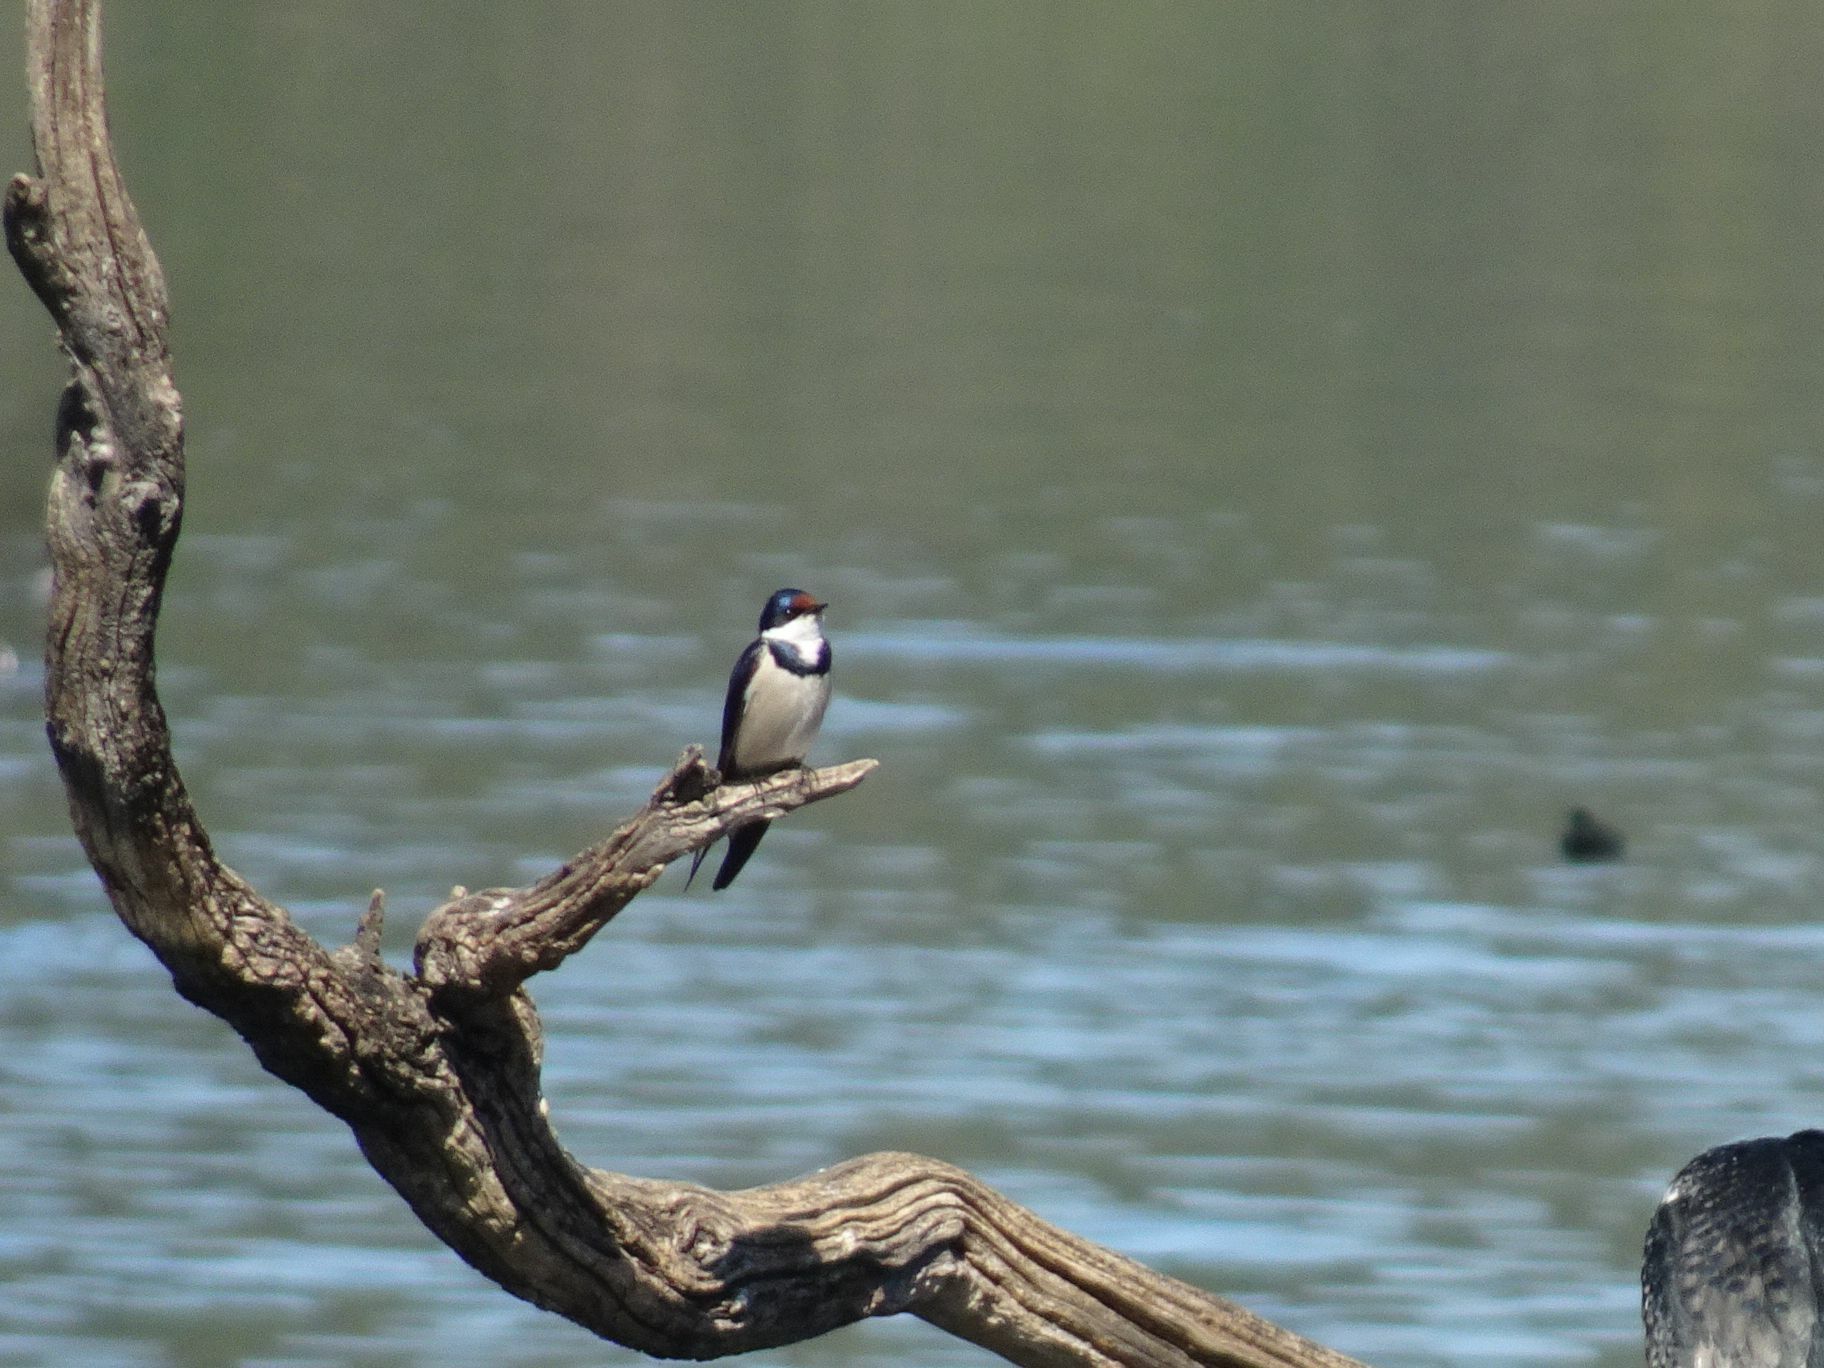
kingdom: Animalia
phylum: Chordata
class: Aves
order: Passeriformes
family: Hirundinidae
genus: Hirundo
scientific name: Hirundo albigularis
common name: White-throated swallow
